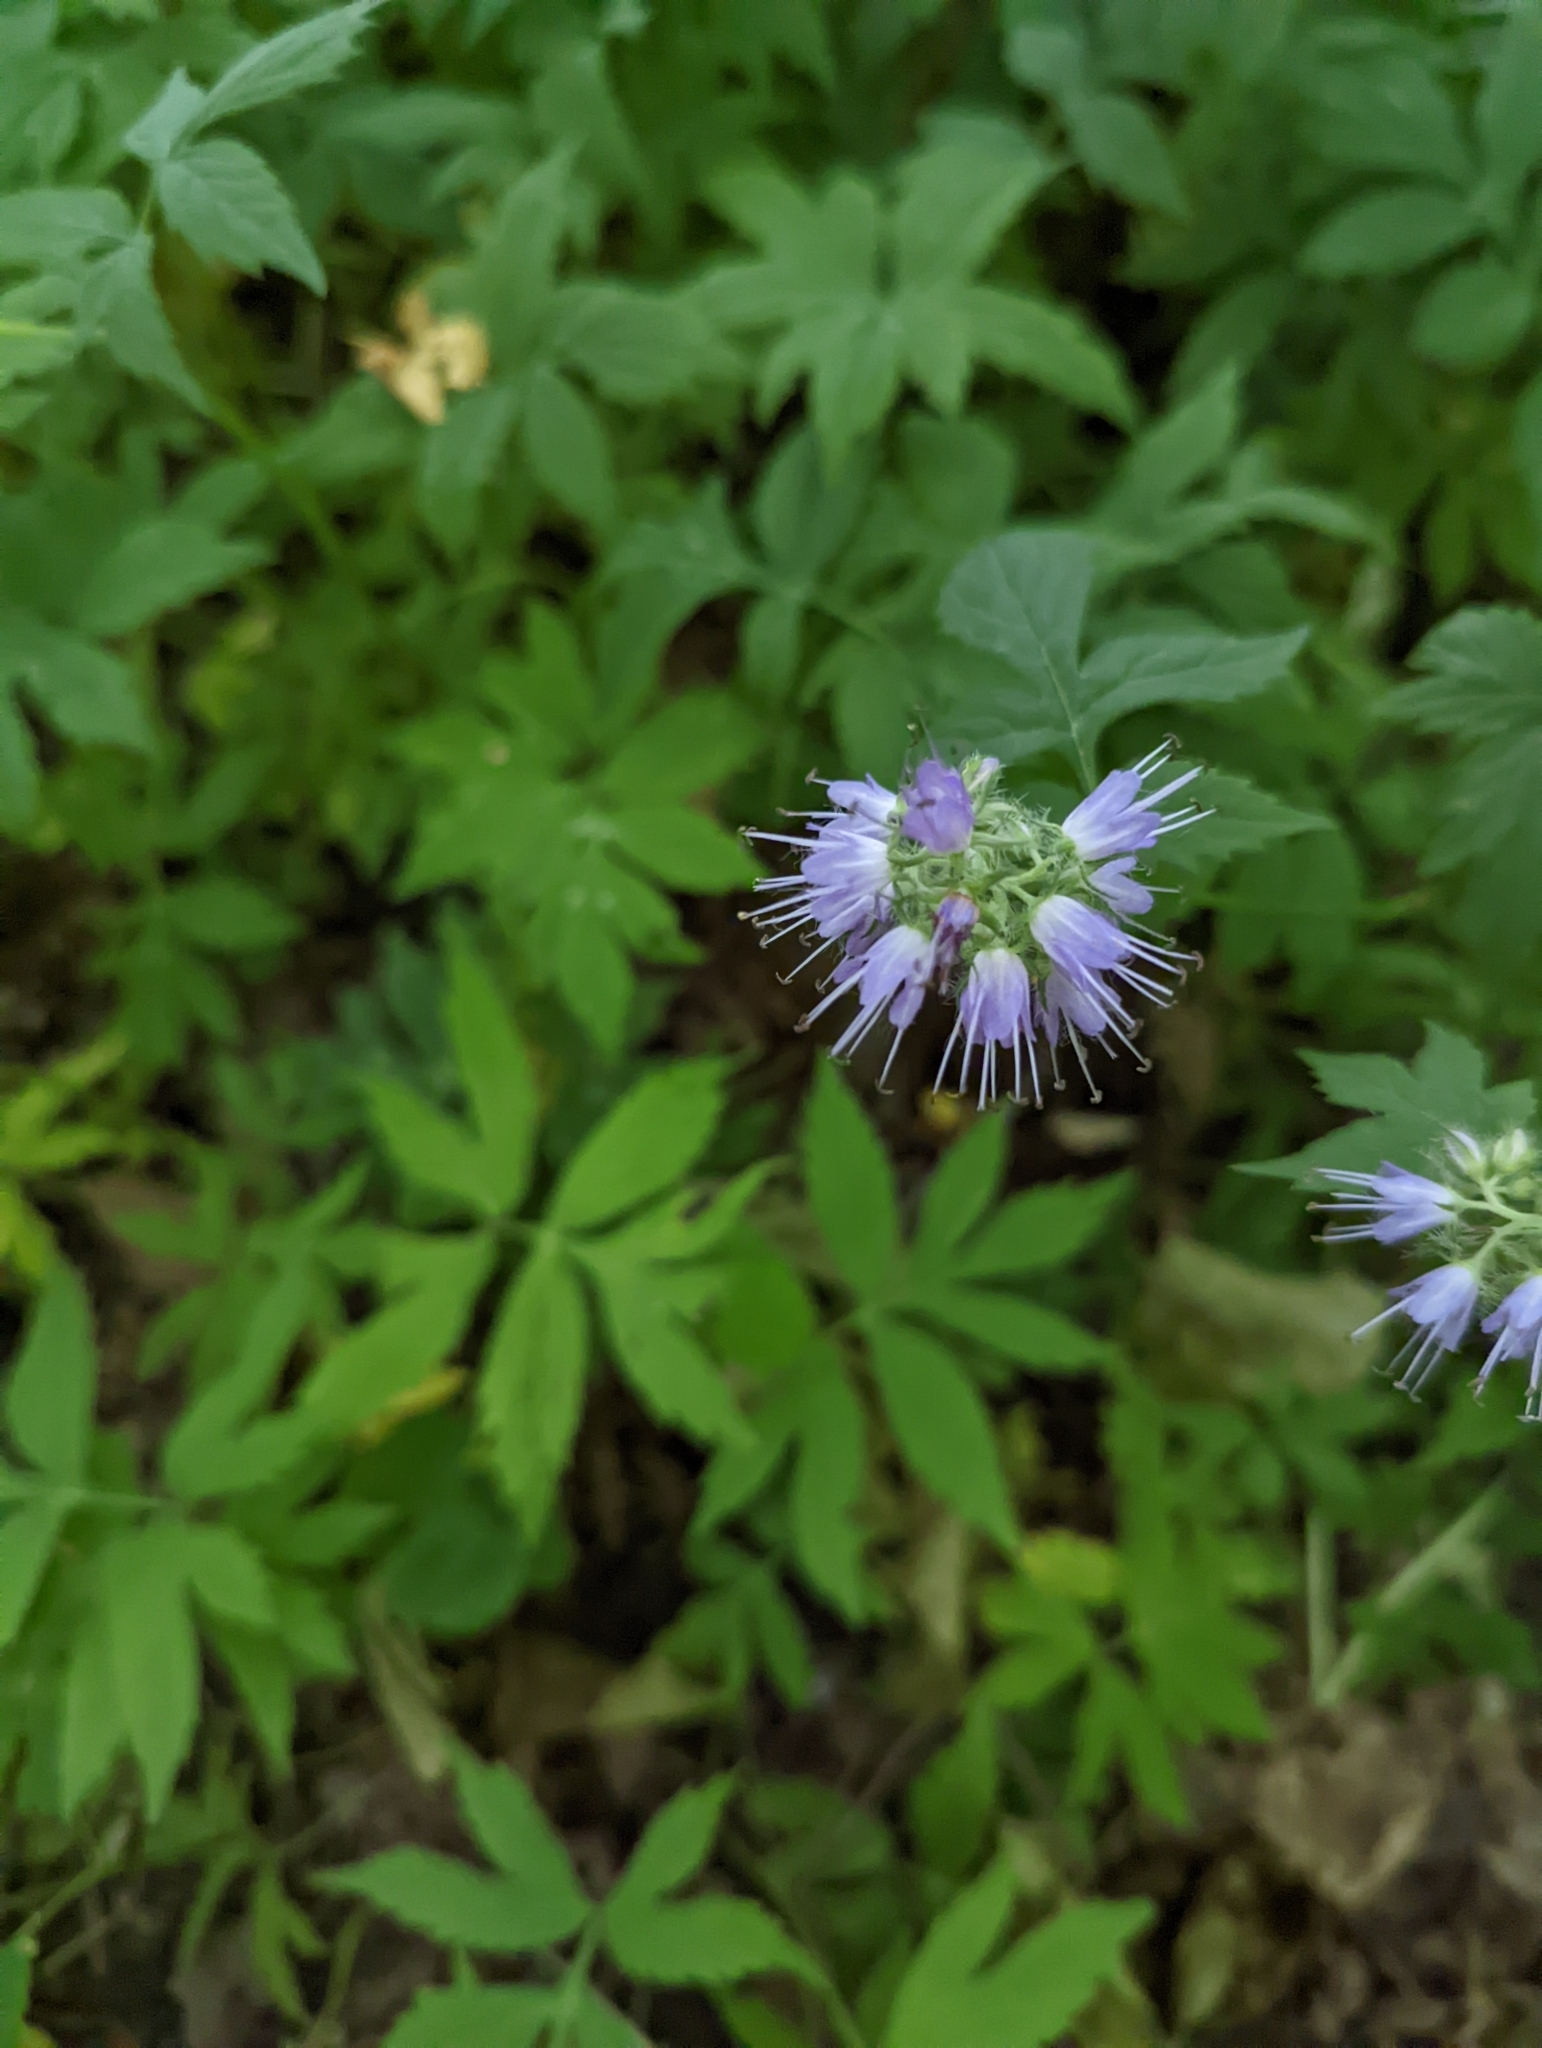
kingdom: Plantae
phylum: Tracheophyta
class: Magnoliopsida
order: Boraginales
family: Hydrophyllaceae
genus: Hydrophyllum
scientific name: Hydrophyllum virginianum
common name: Virginia waterleaf
